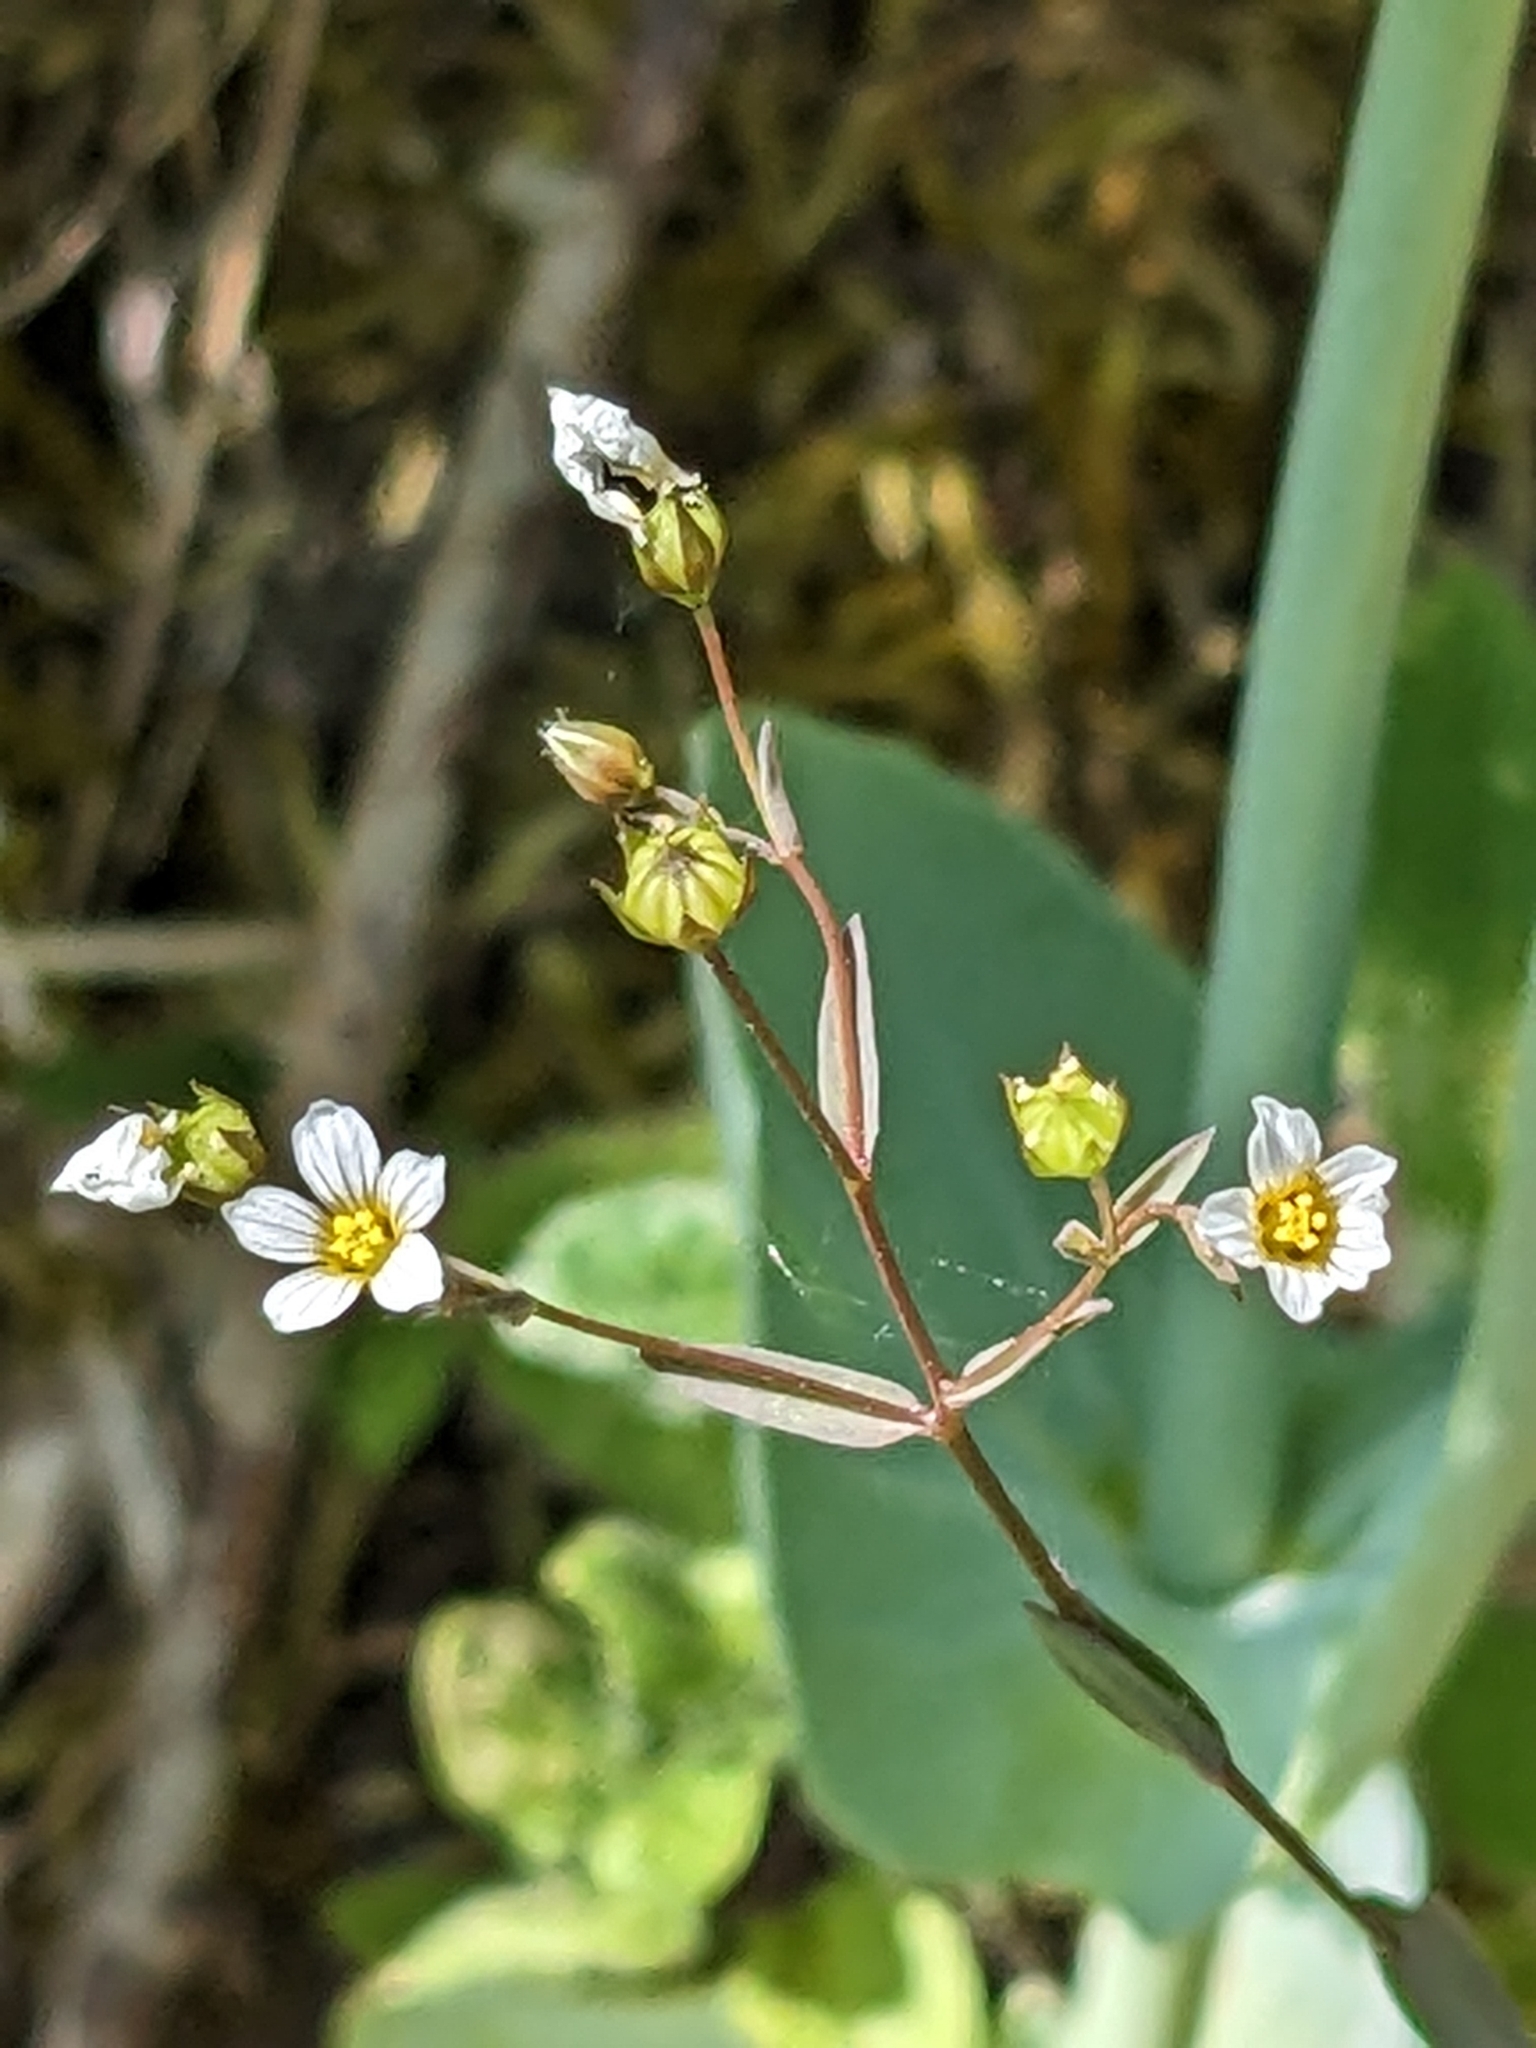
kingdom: Plantae
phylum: Tracheophyta
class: Magnoliopsida
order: Malpighiales
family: Linaceae
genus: Linum
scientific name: Linum catharticum
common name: Fairy flax
